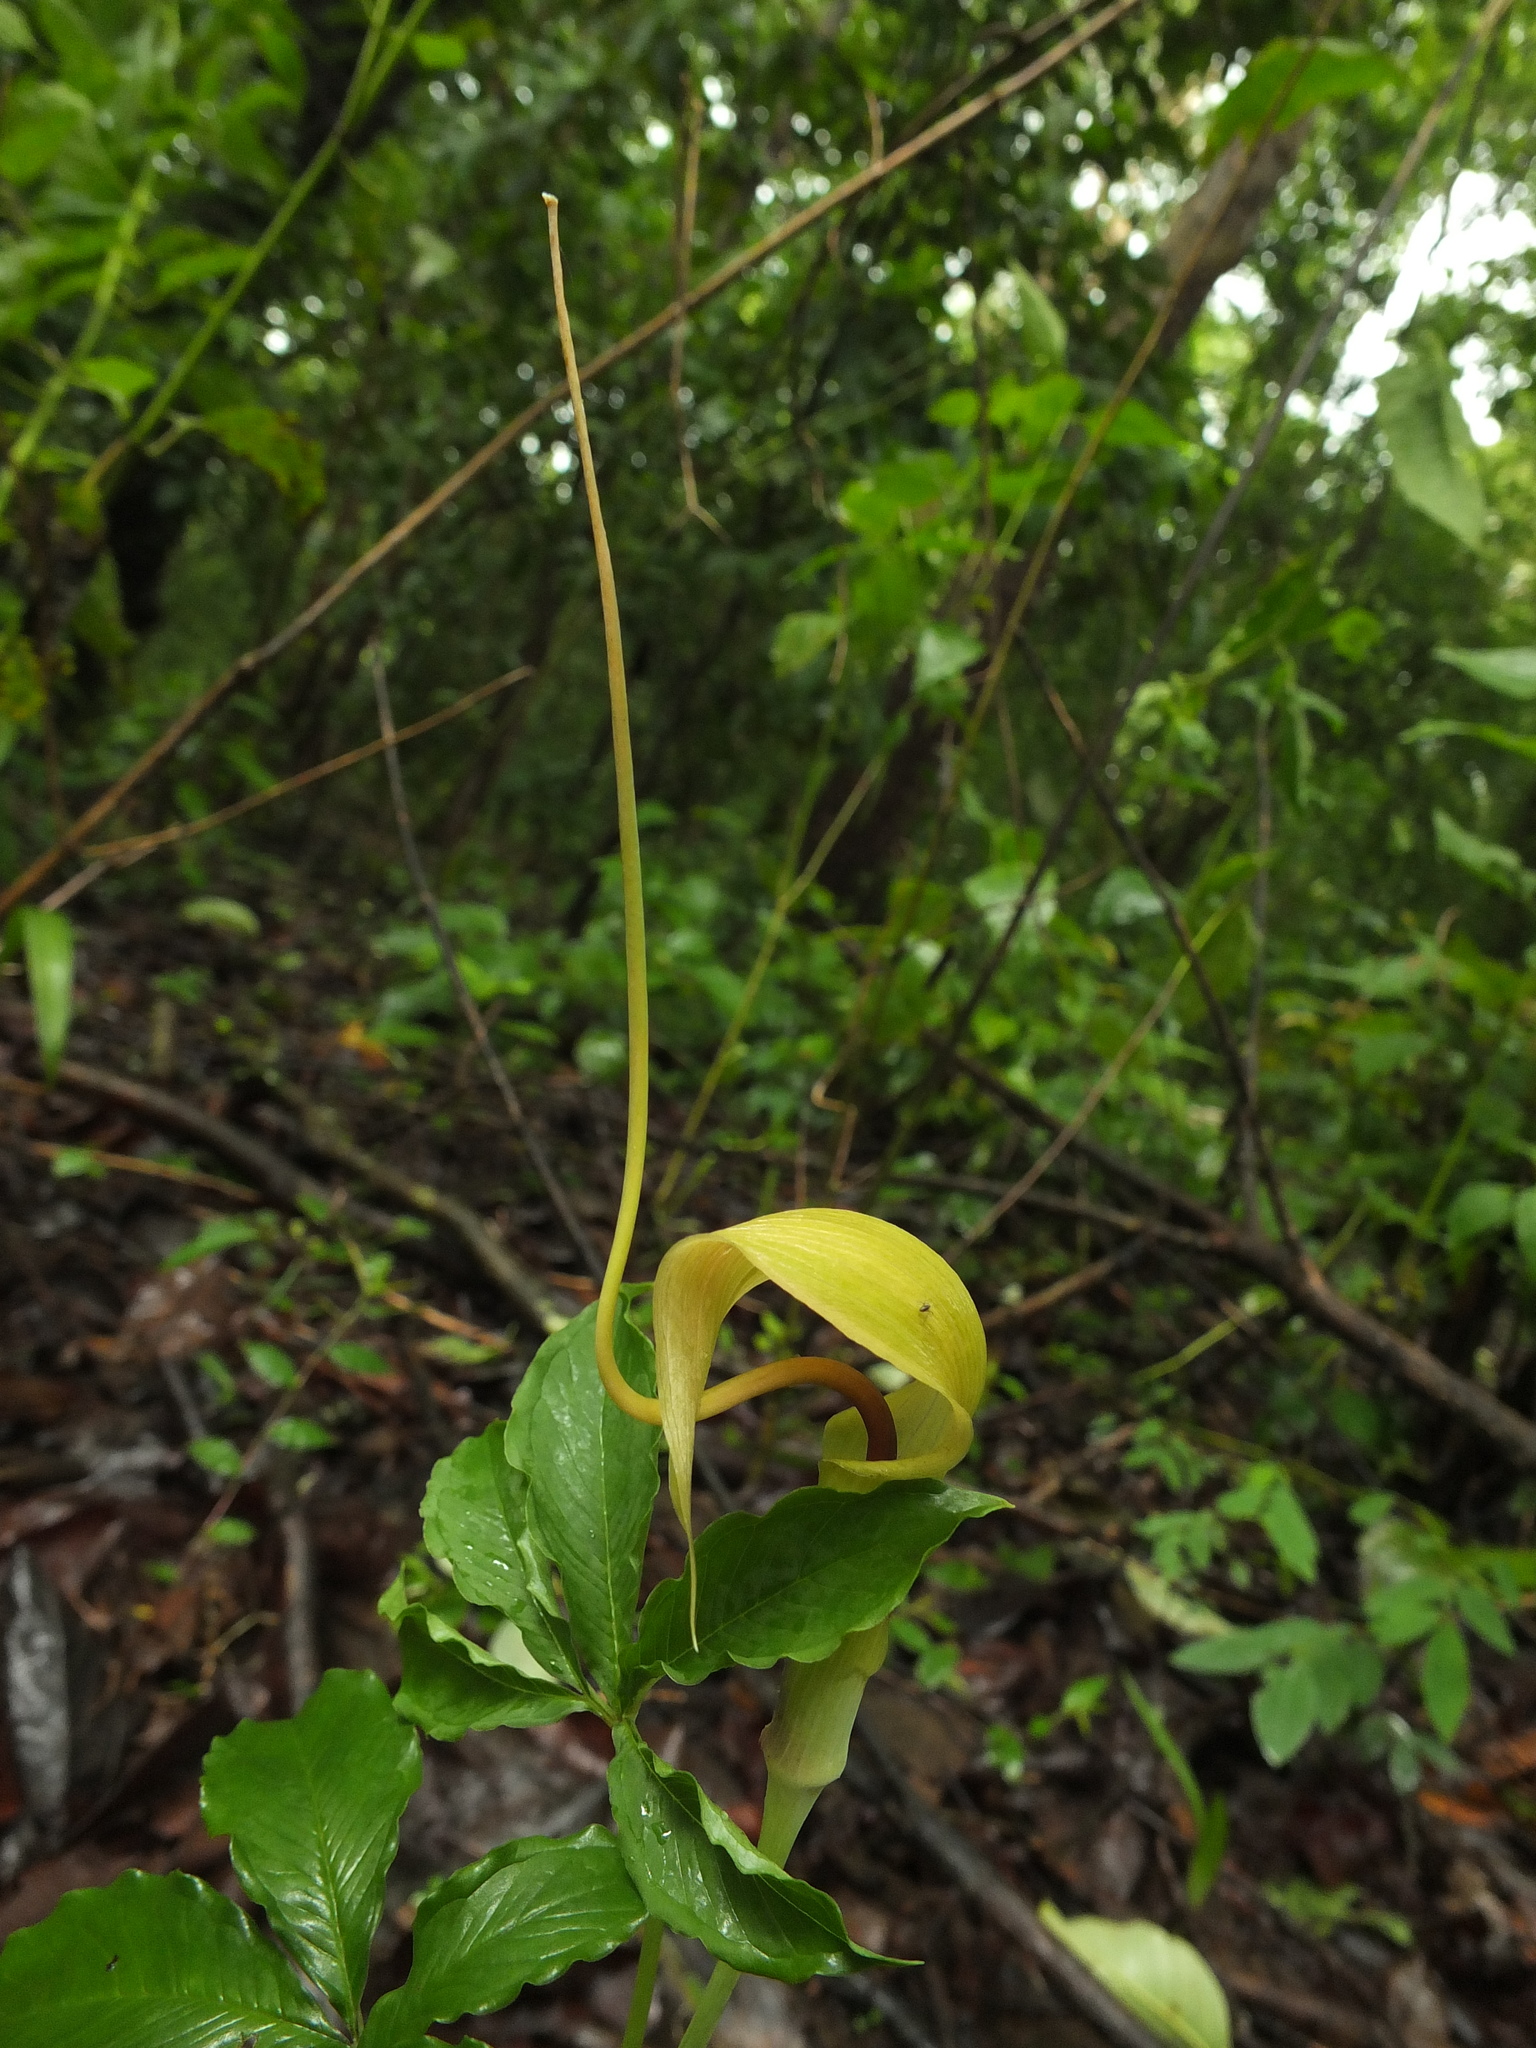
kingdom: Plantae
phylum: Tracheophyta
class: Liliopsida
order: Alismatales
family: Araceae
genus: Arisaema
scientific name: Arisaema tortuosum
